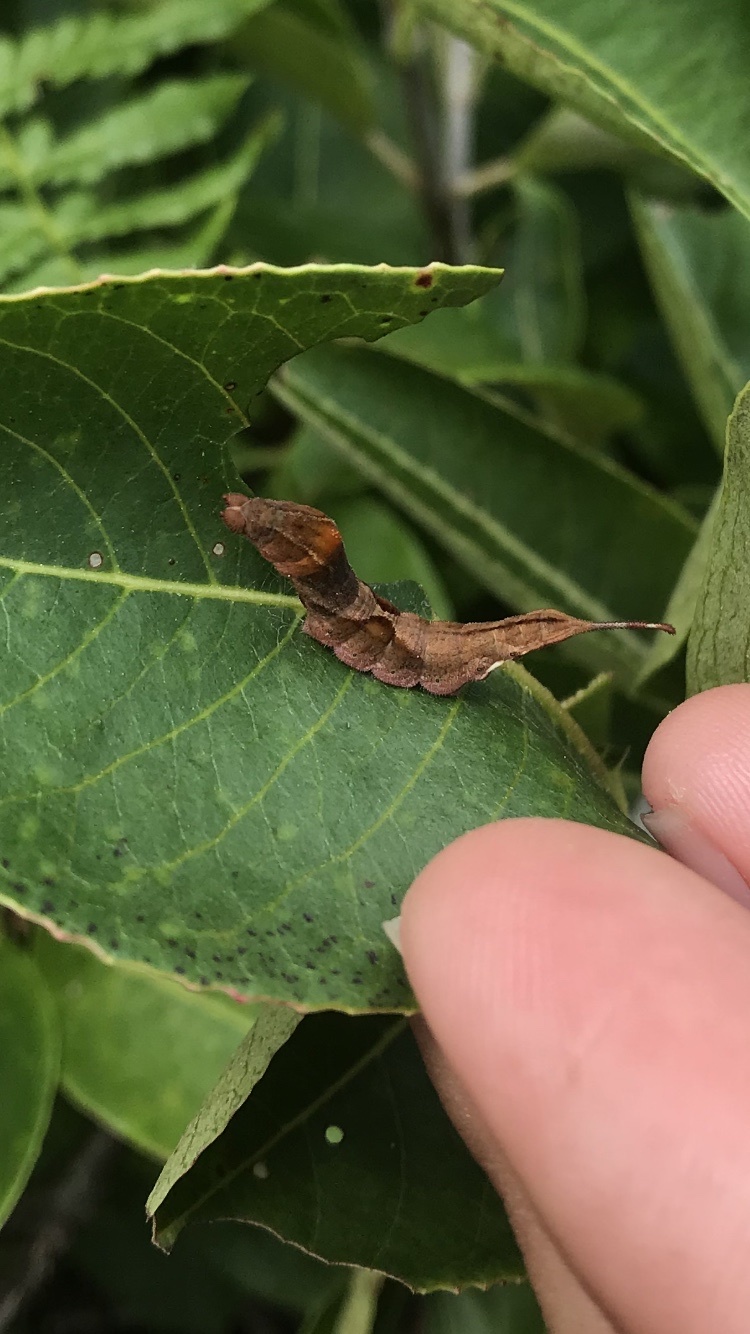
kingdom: Animalia
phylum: Arthropoda
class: Insecta
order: Lepidoptera
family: Drepanidae
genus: Oreta
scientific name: Oreta rosea
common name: Rose hooktip
